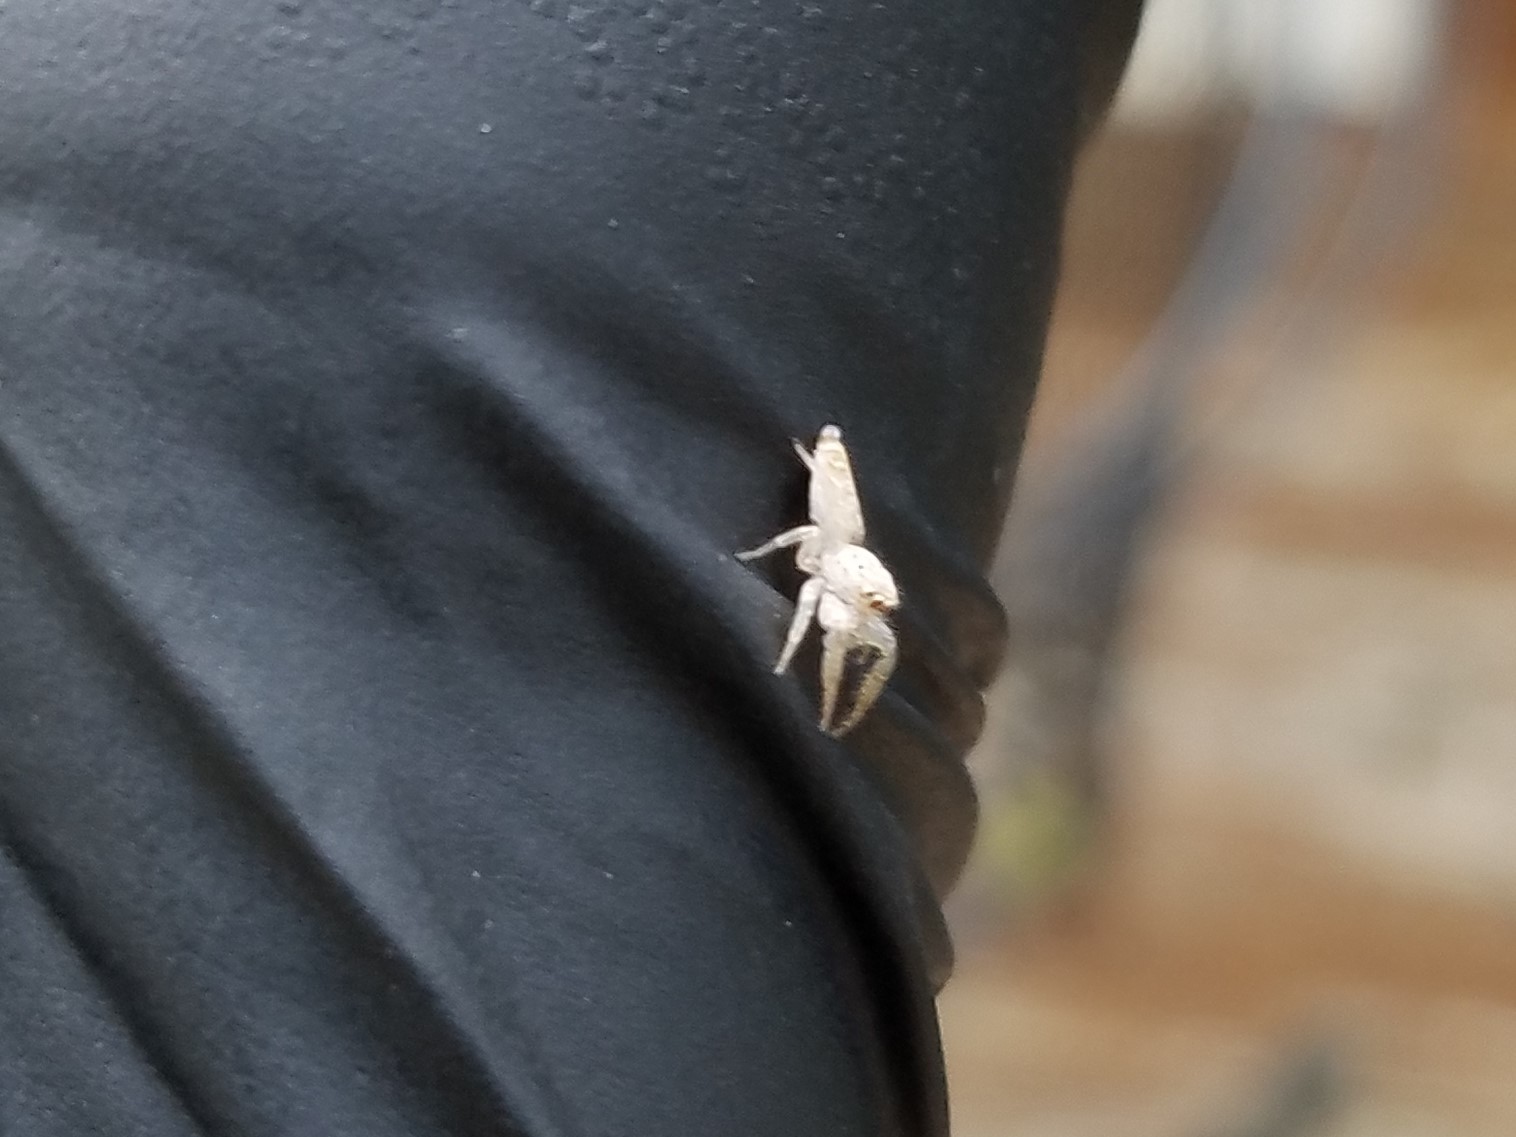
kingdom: Animalia
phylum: Arthropoda
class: Arachnida
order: Araneae
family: Salticidae
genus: Hentzia
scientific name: Hentzia mitrata
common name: White-jawed jumping spider
